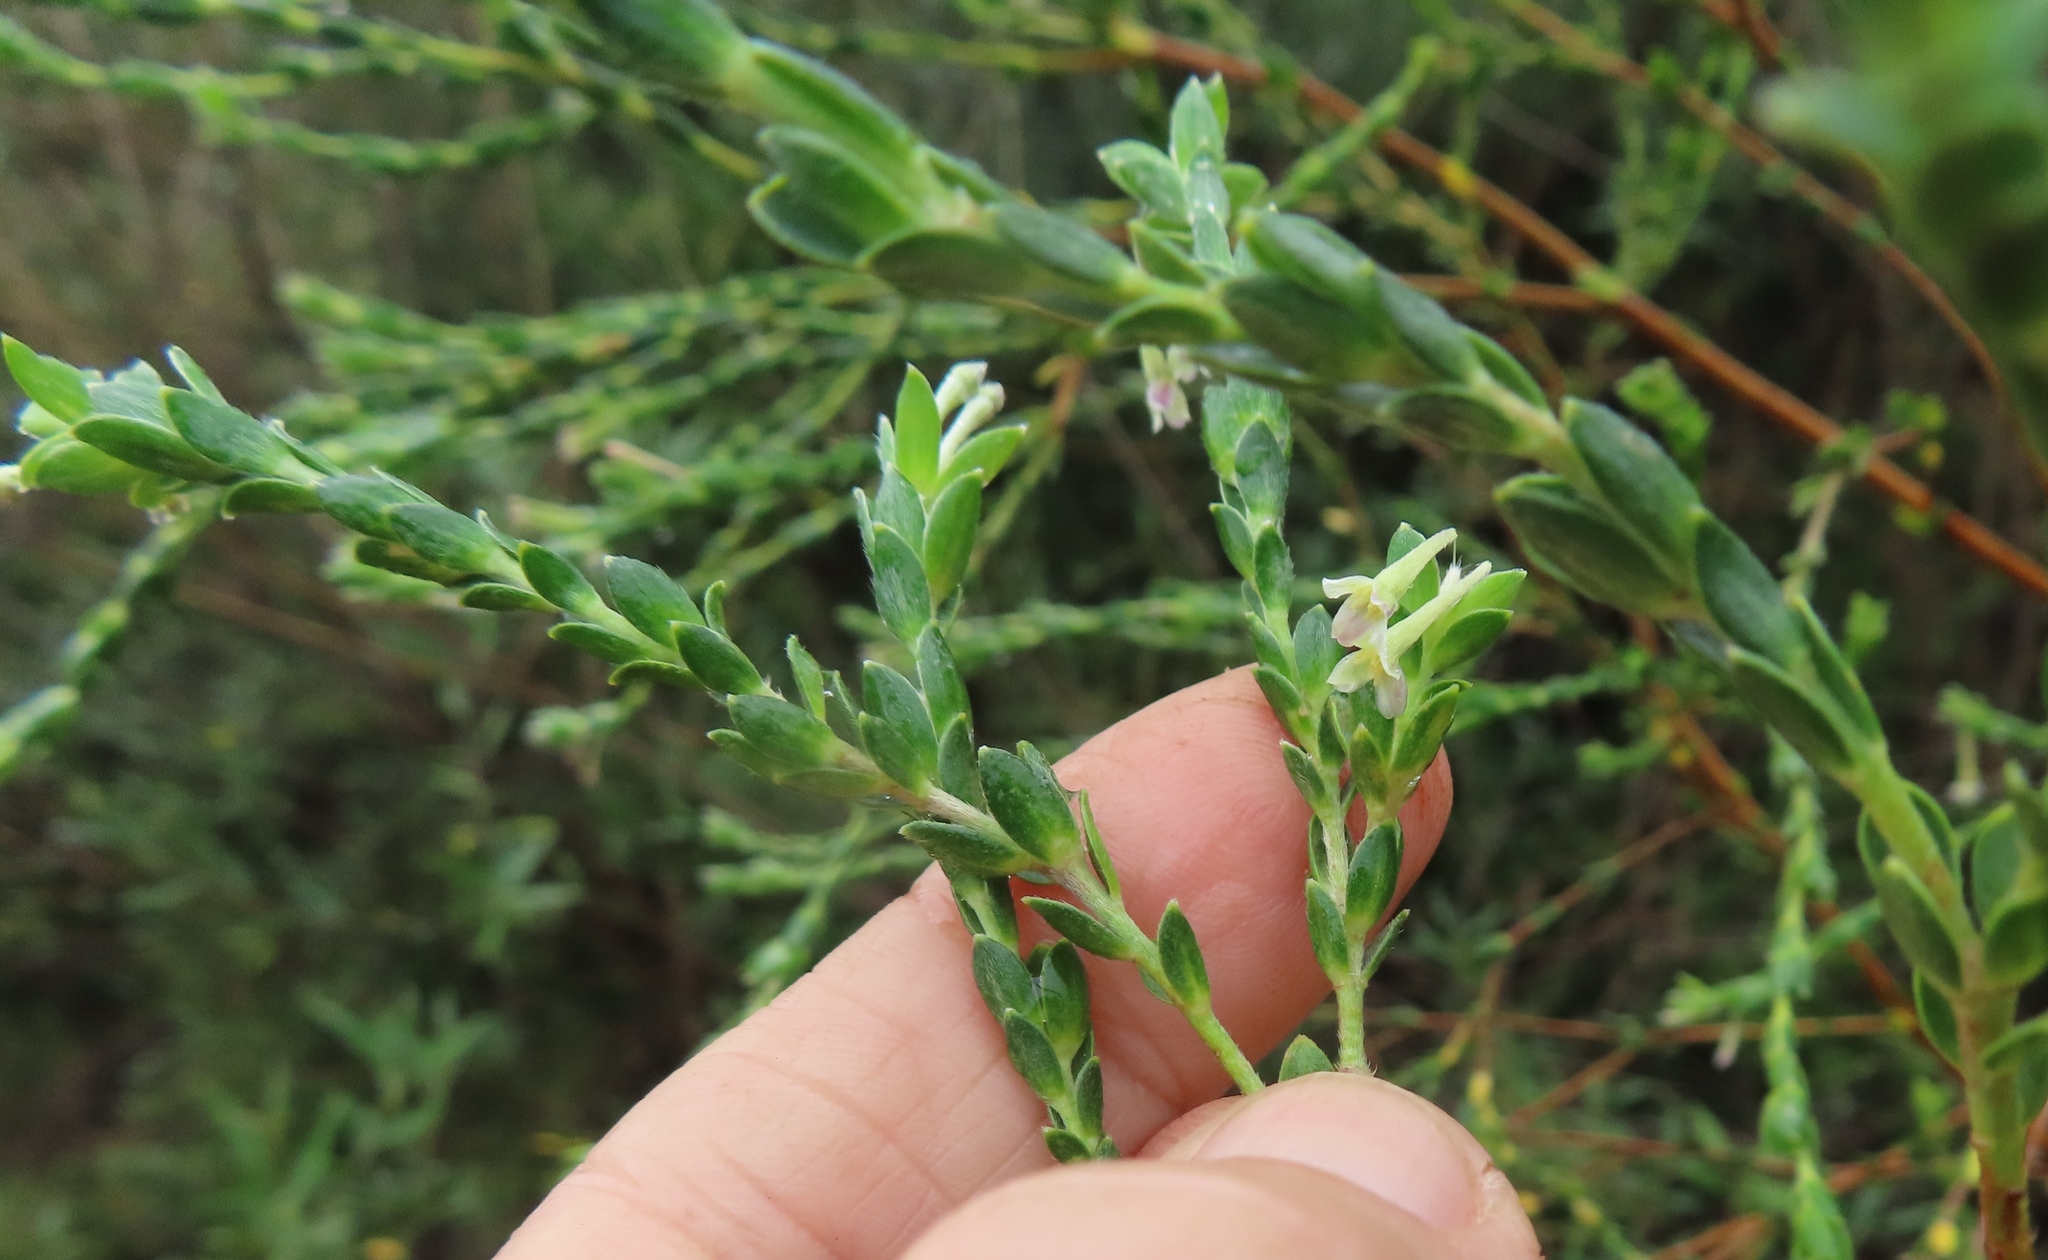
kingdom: Plantae
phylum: Tracheophyta
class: Magnoliopsida
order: Malvales
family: Thymelaeaceae
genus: Gnidia
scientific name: Gnidia caniflora
